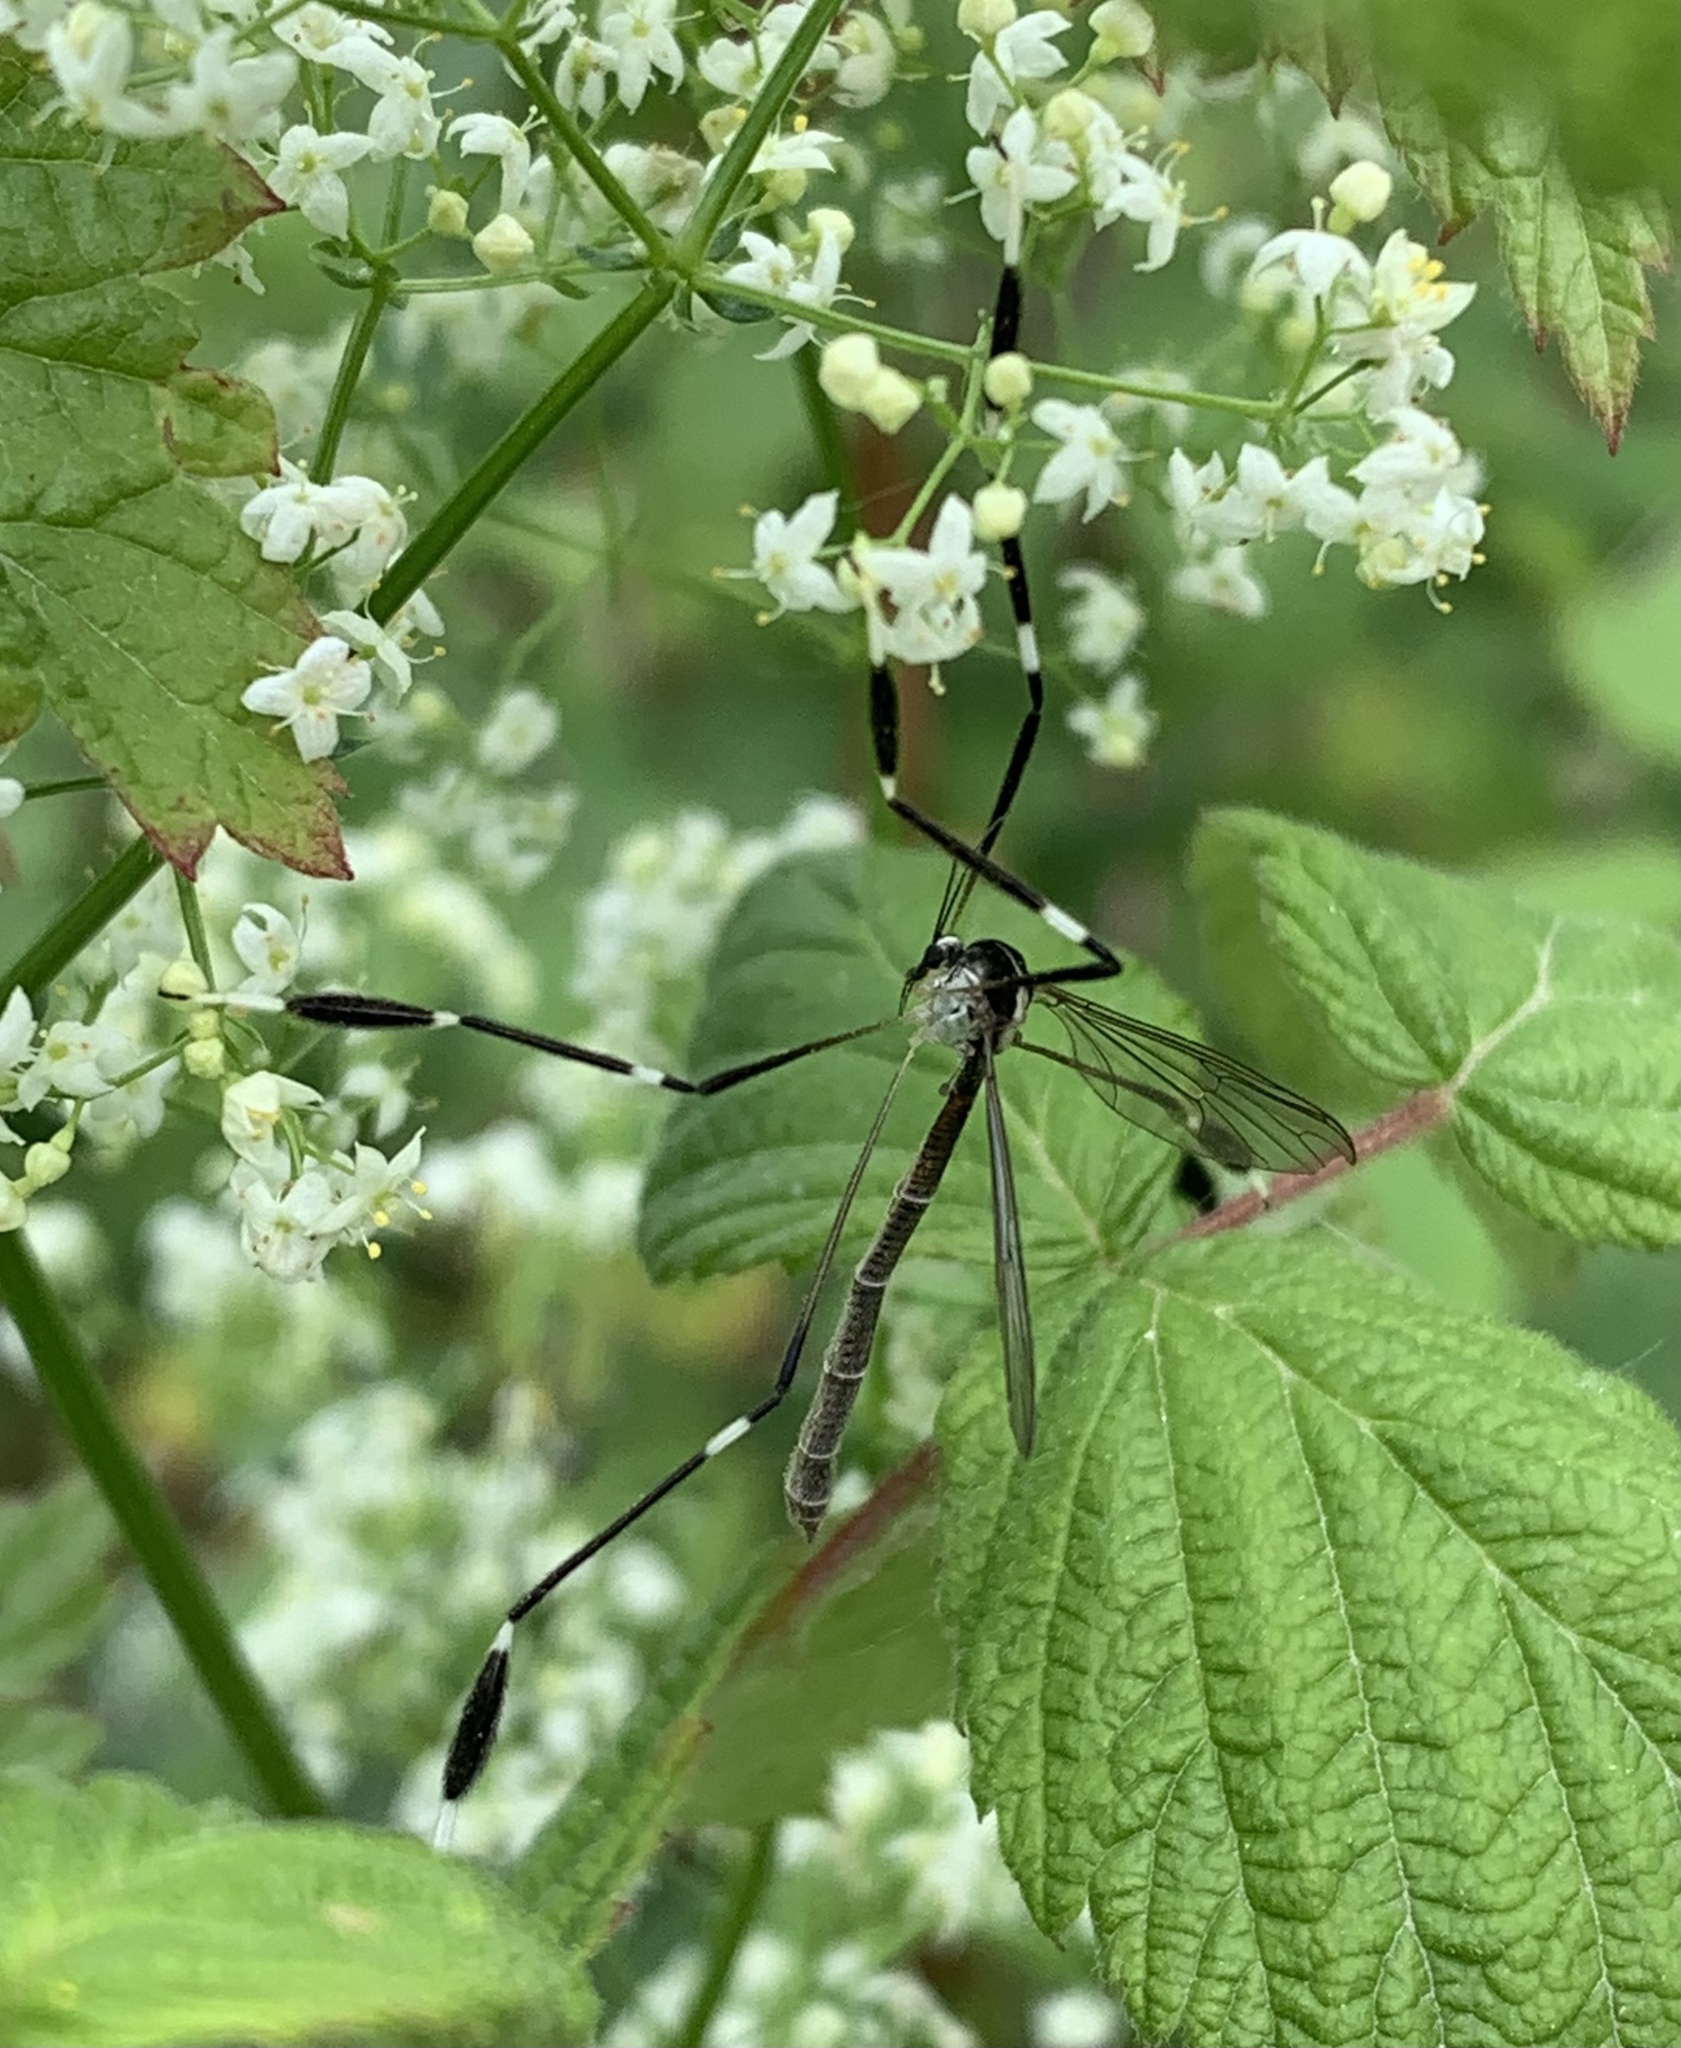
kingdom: Animalia
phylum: Arthropoda
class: Insecta
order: Diptera
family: Ptychopteridae
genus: Bittacomorpha
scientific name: Bittacomorpha clavipes
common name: Eastern phantom crane fly
